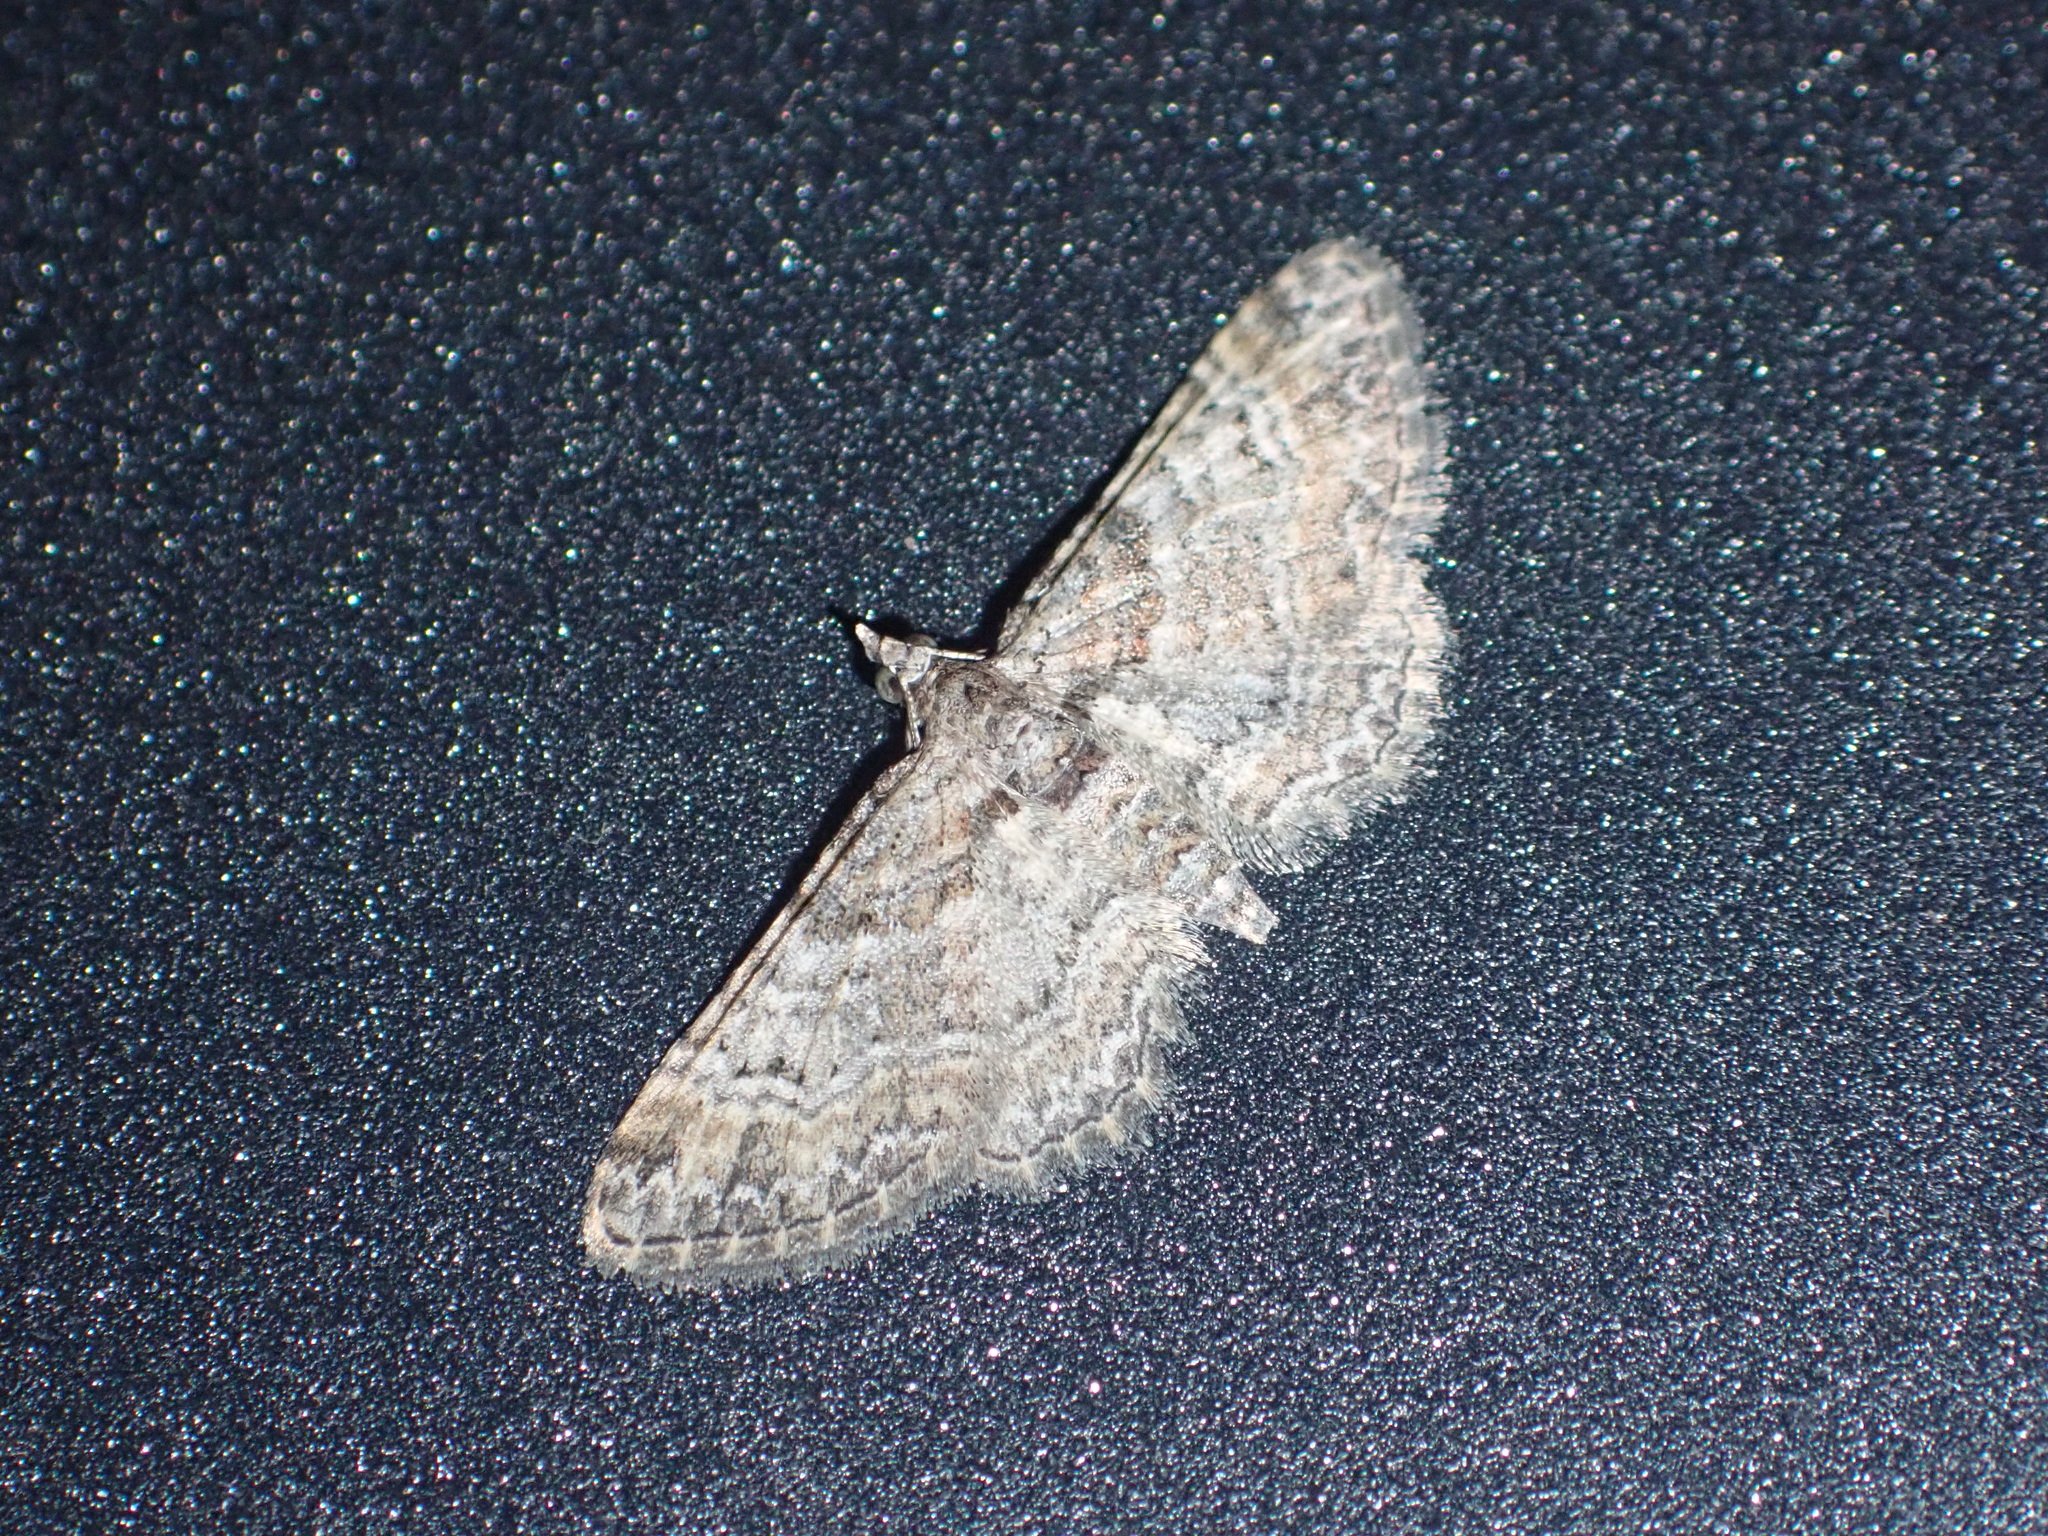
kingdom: Animalia
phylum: Arthropoda
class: Insecta
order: Lepidoptera
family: Geometridae
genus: Gymnoscelis
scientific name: Gymnoscelis rufifasciata
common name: Double-striped pug
